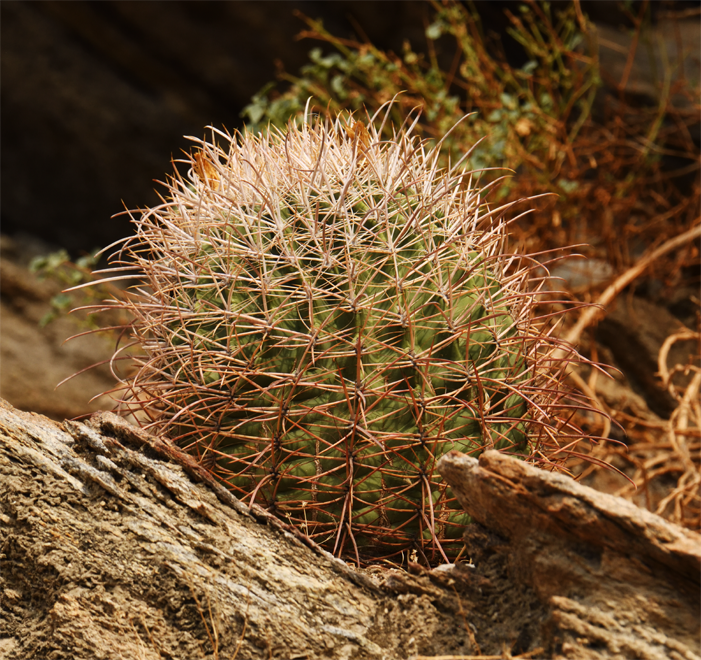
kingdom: Plantae
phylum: Tracheophyta
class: Magnoliopsida
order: Caryophyllales
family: Cactaceae
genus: Ferocactus
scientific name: Ferocactus cylindraceus
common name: California barrel cactus
